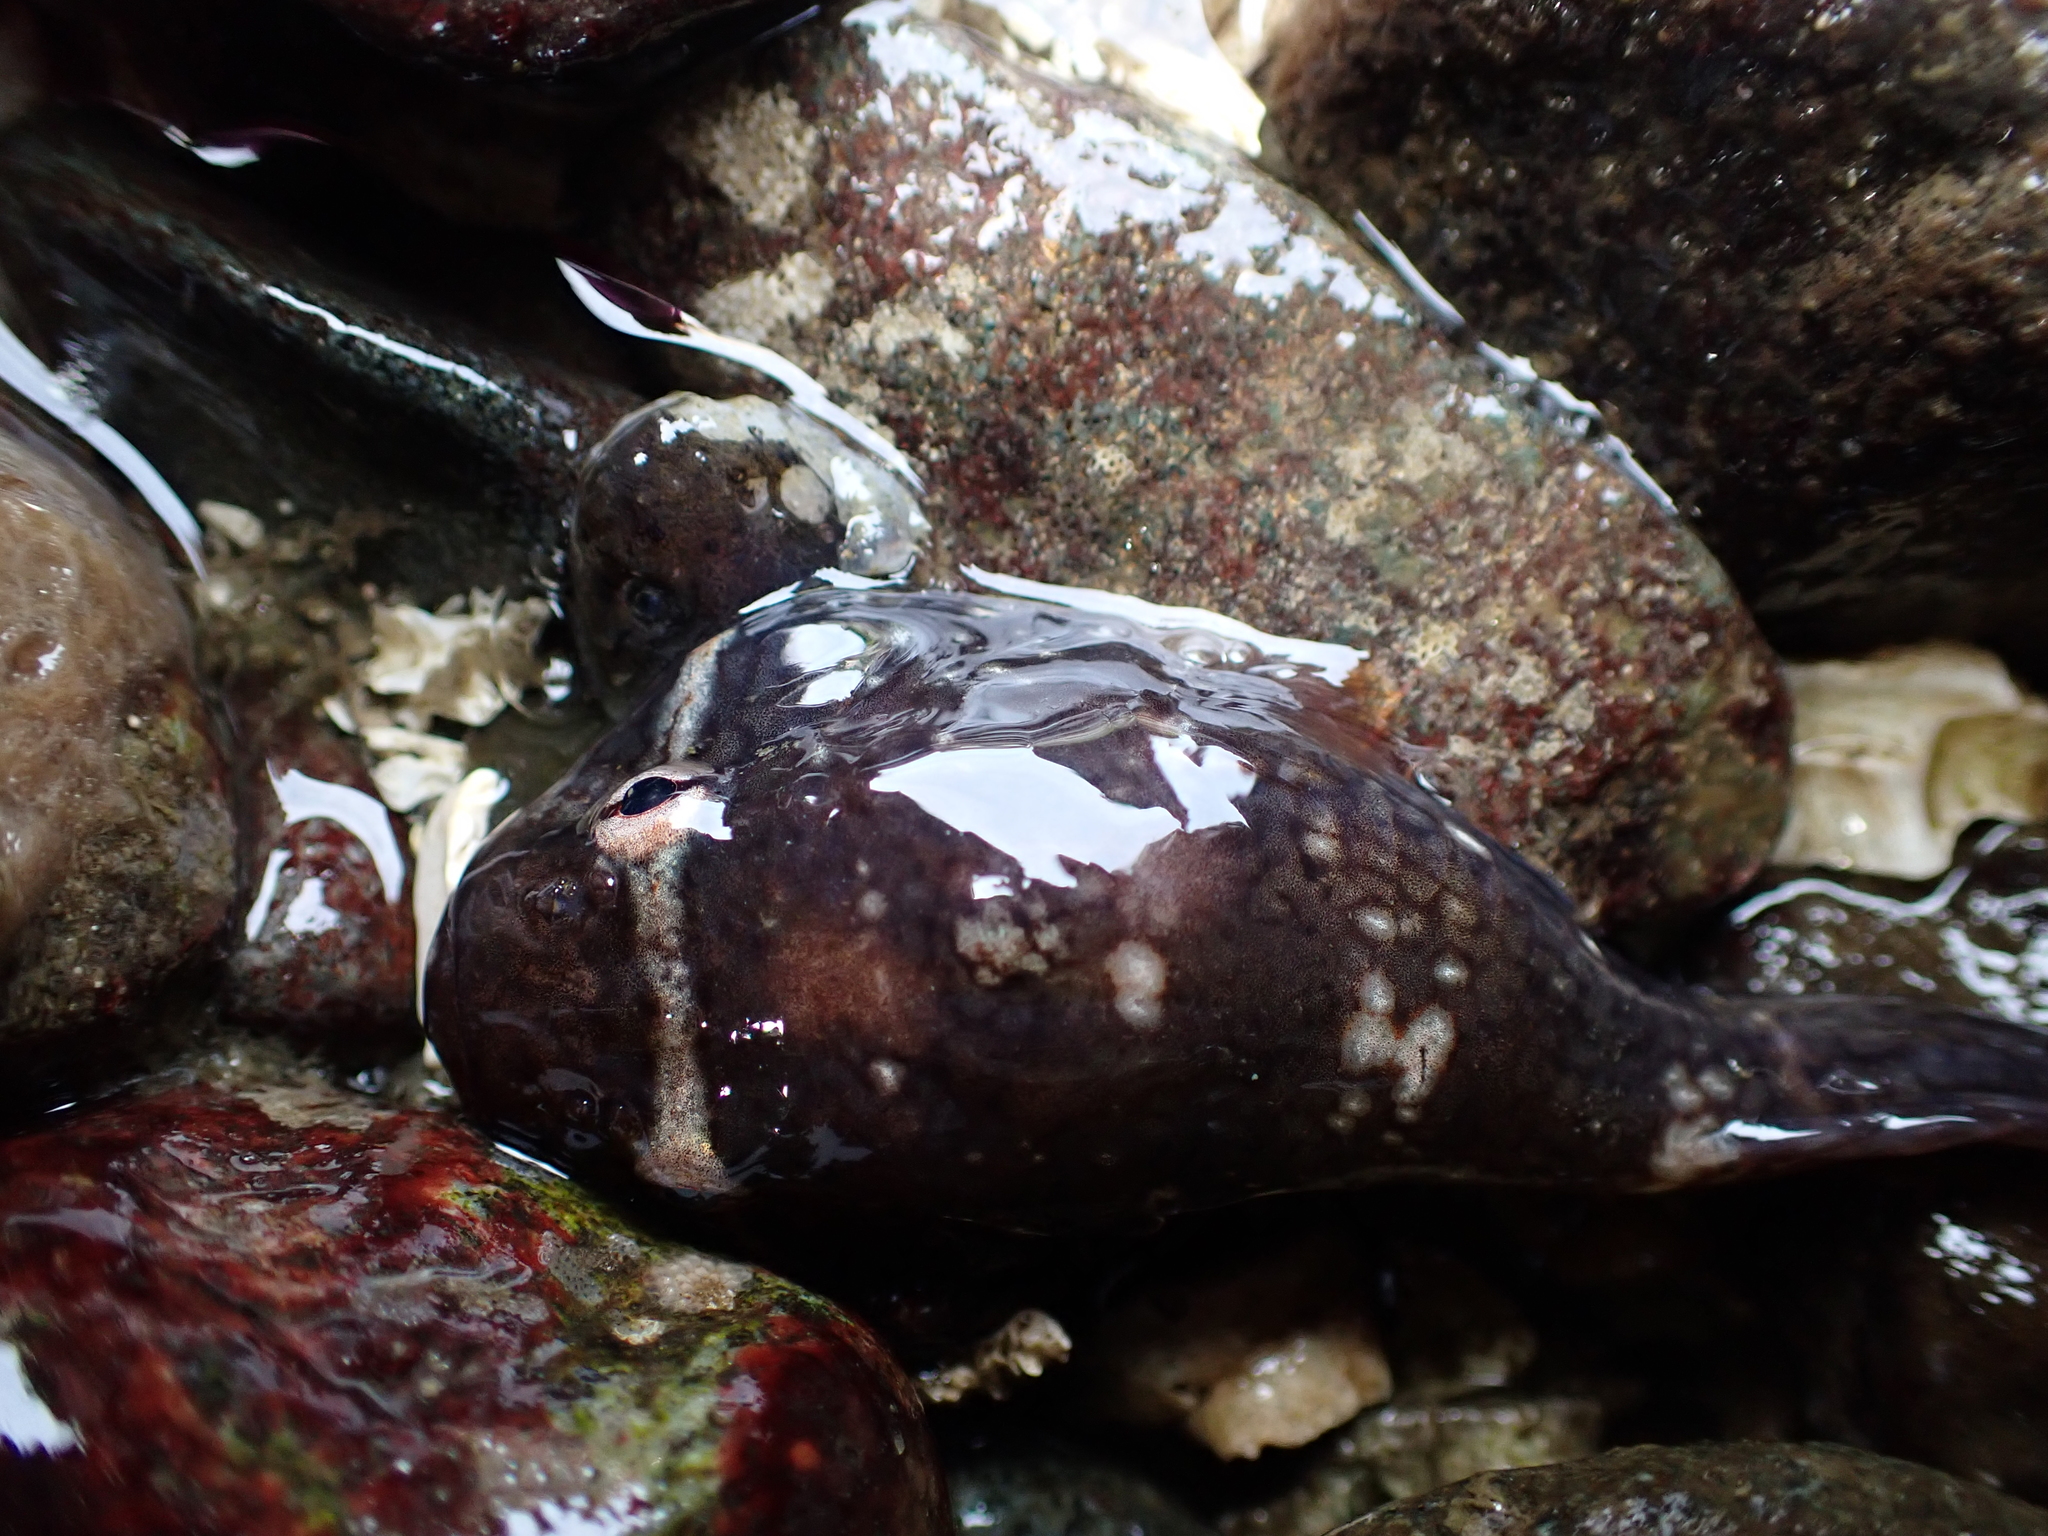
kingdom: Animalia
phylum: Chordata
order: Gobiesociformes
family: Gobiesocidae
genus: Gobiesox
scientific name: Gobiesox maeandricus
